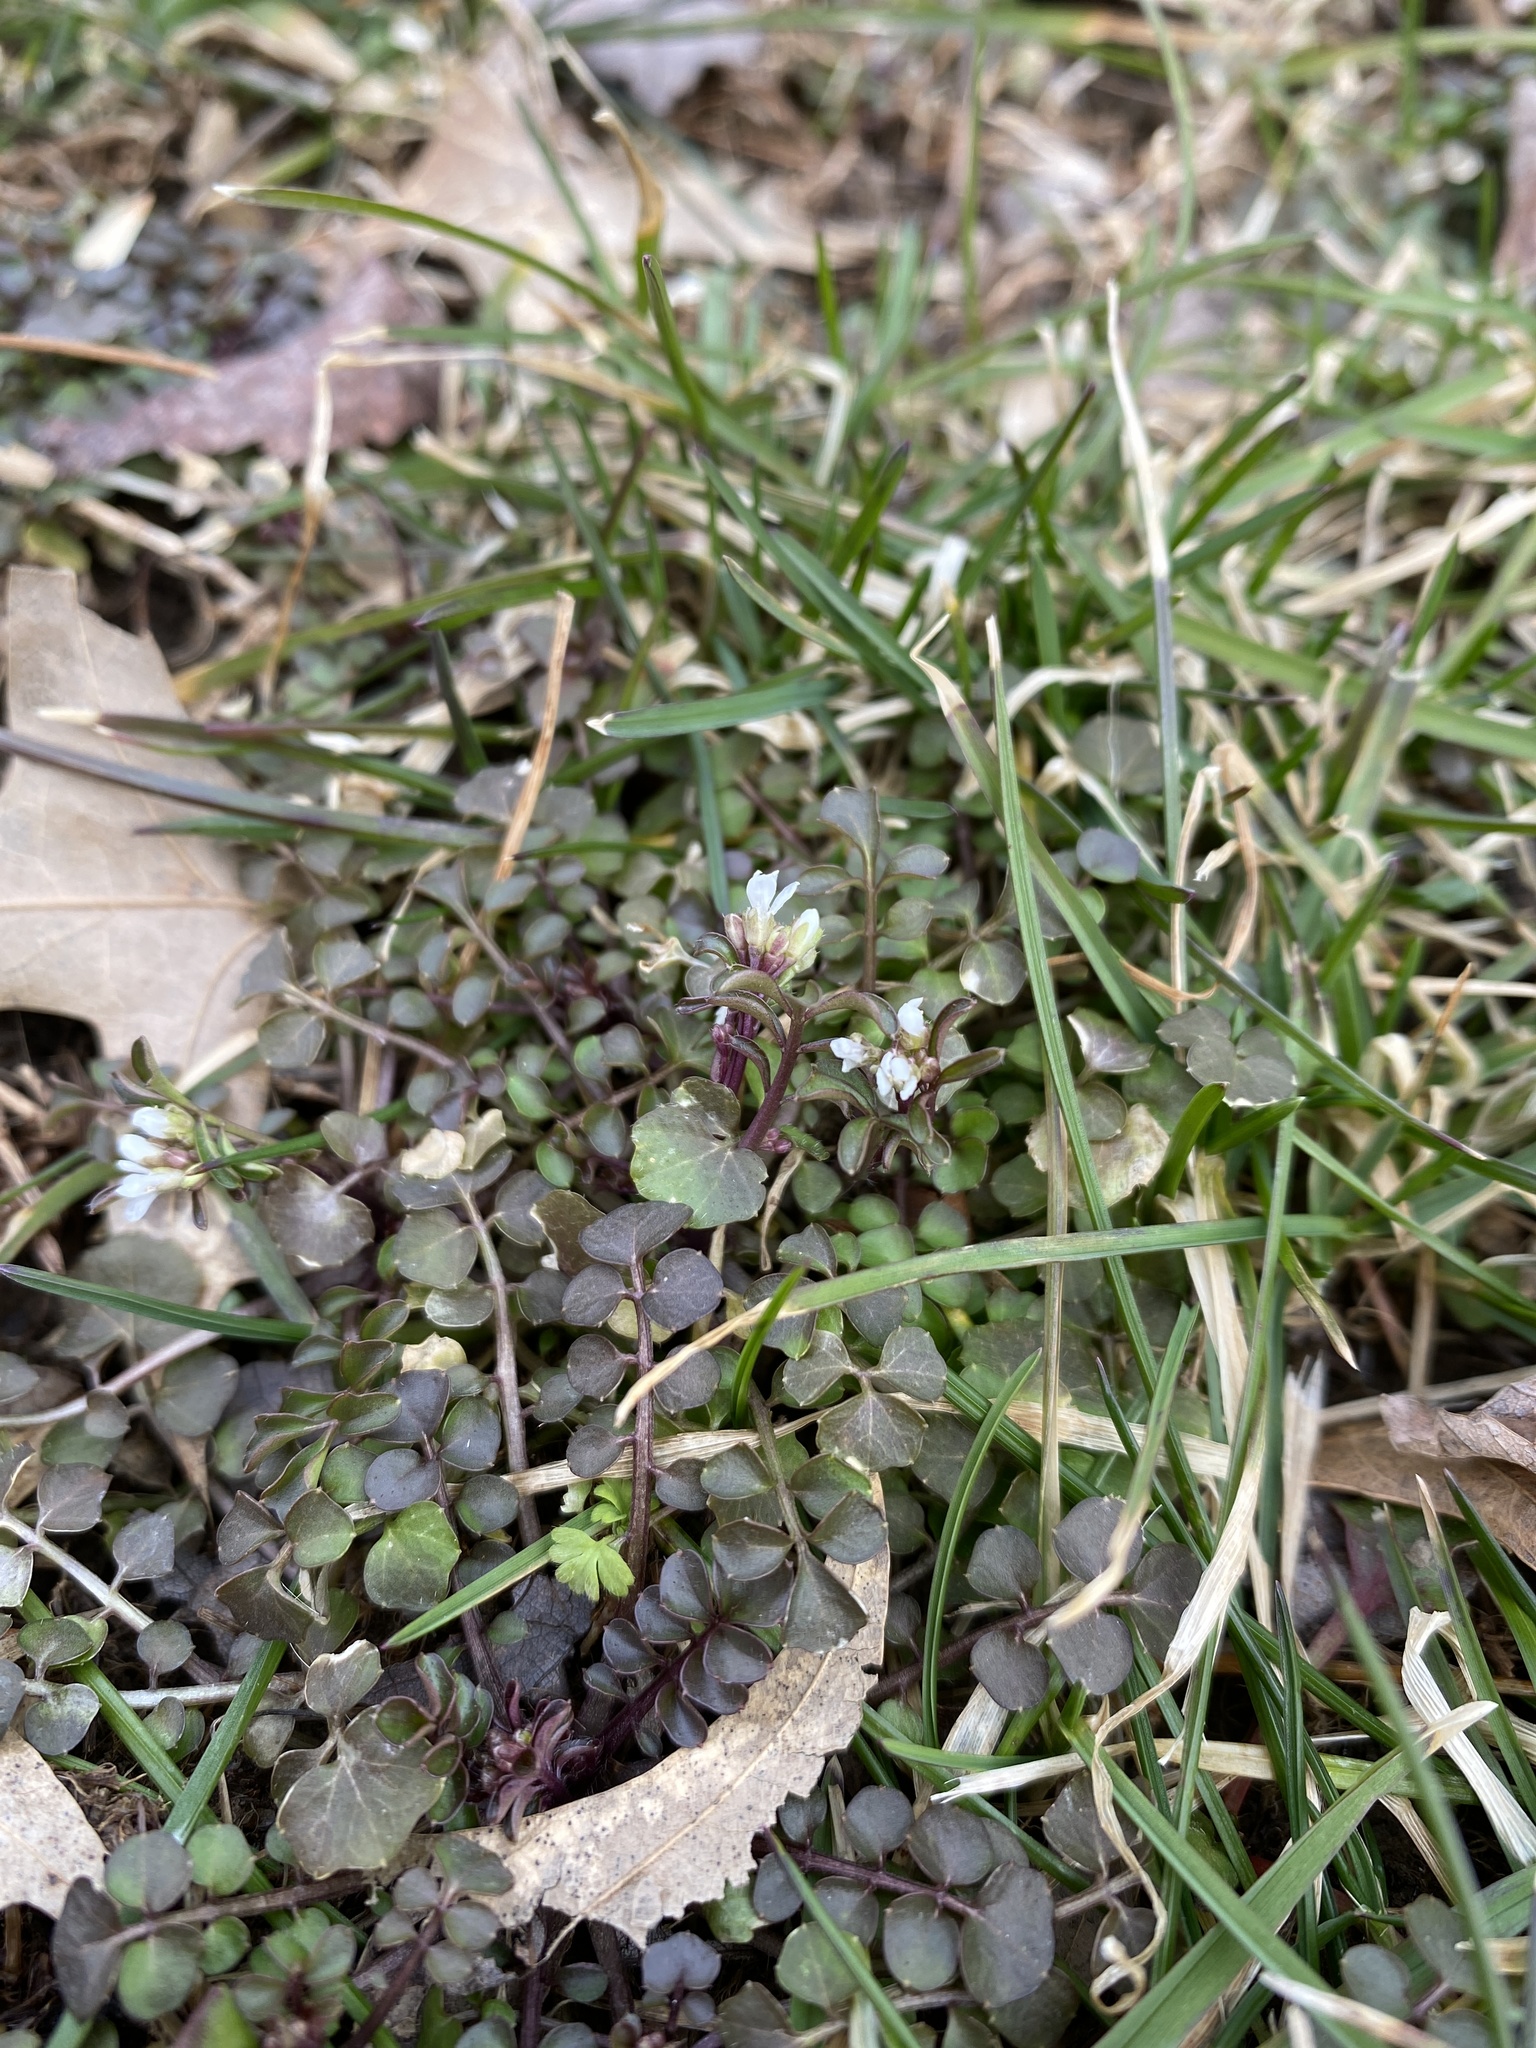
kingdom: Plantae
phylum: Tracheophyta
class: Magnoliopsida
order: Brassicales
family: Brassicaceae
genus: Cardamine
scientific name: Cardamine hirsuta
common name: Hairy bittercress
